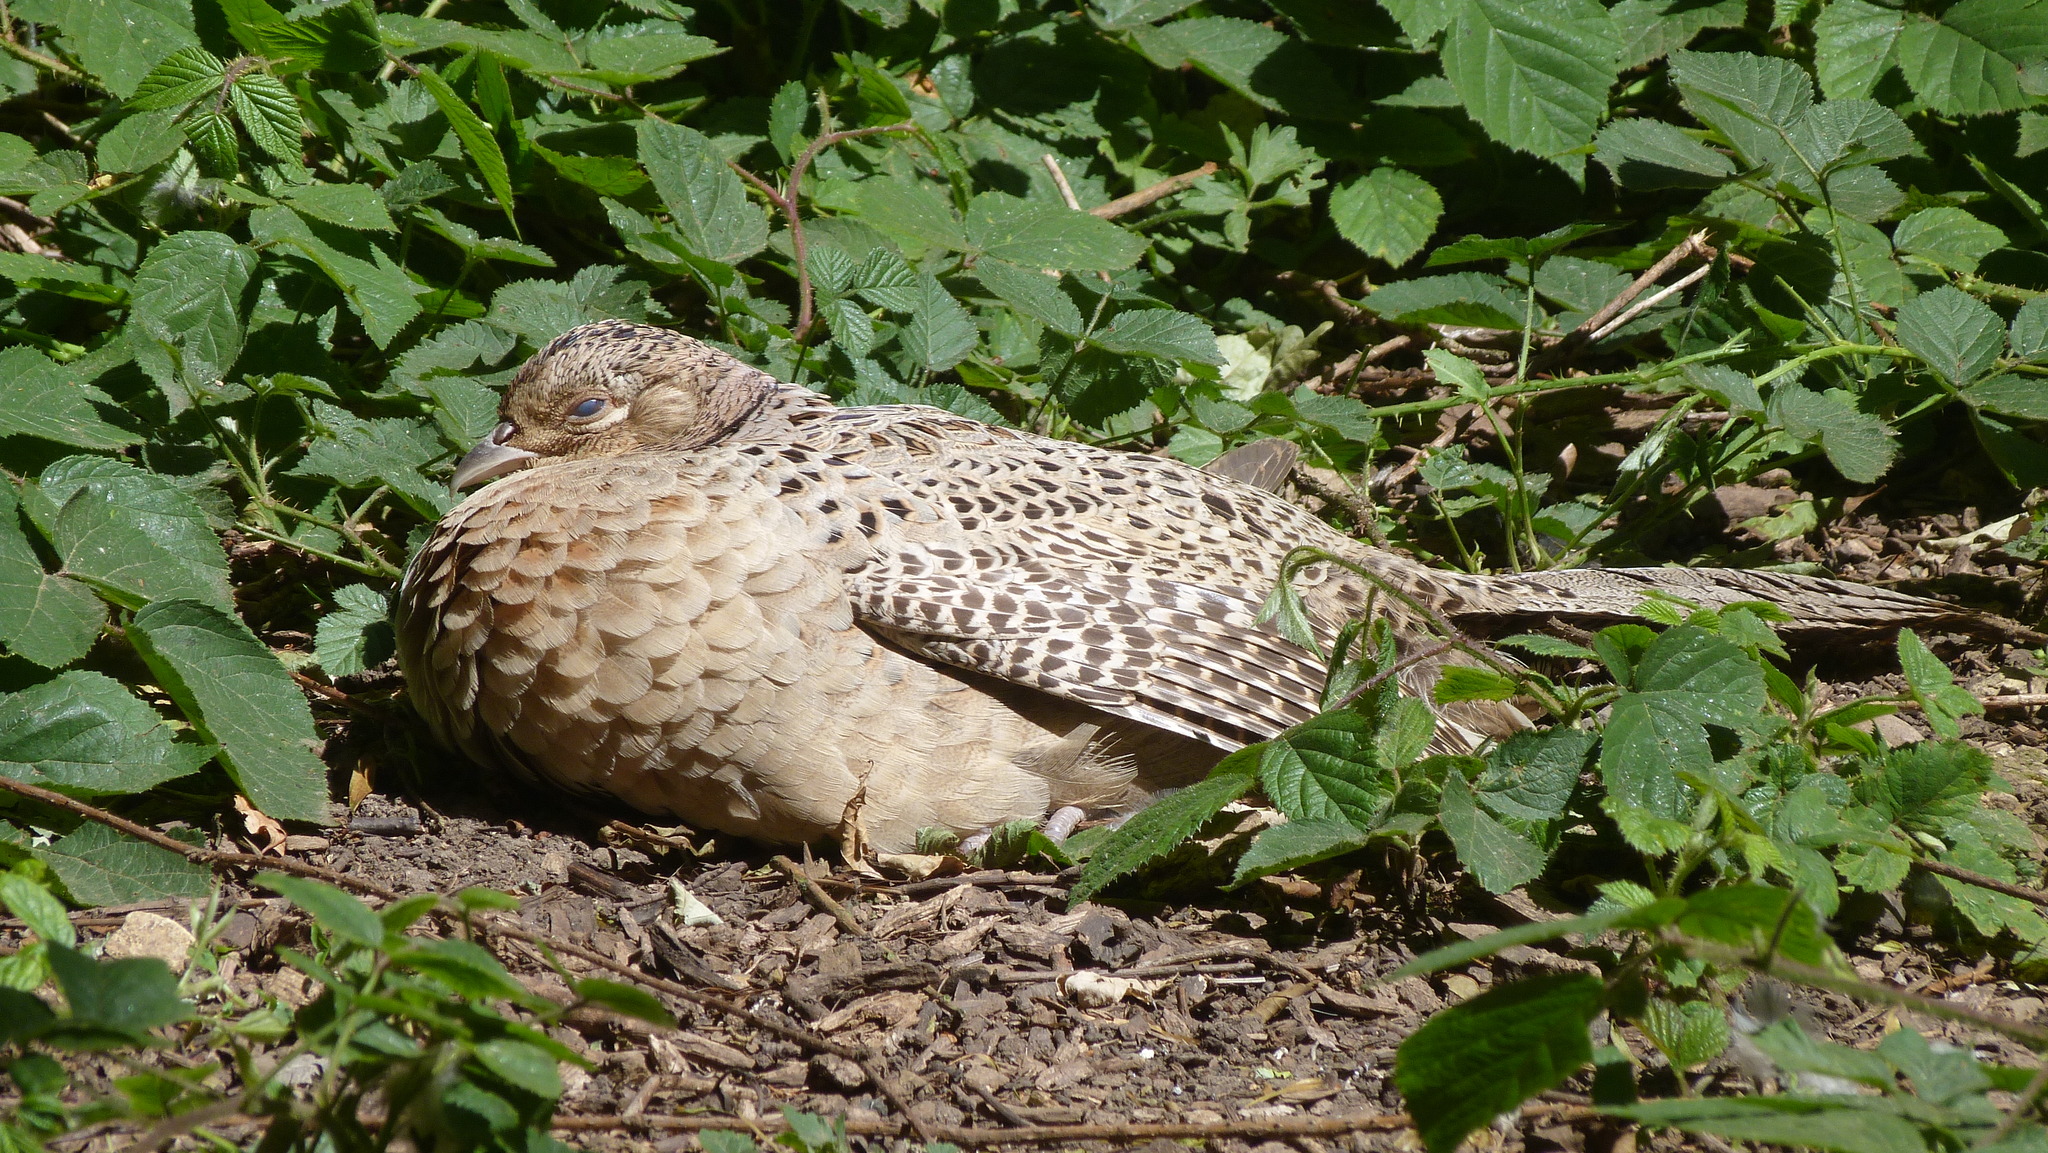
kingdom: Animalia
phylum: Chordata
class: Aves
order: Galliformes
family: Phasianidae
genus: Phasianus
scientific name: Phasianus colchicus
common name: Common pheasant
